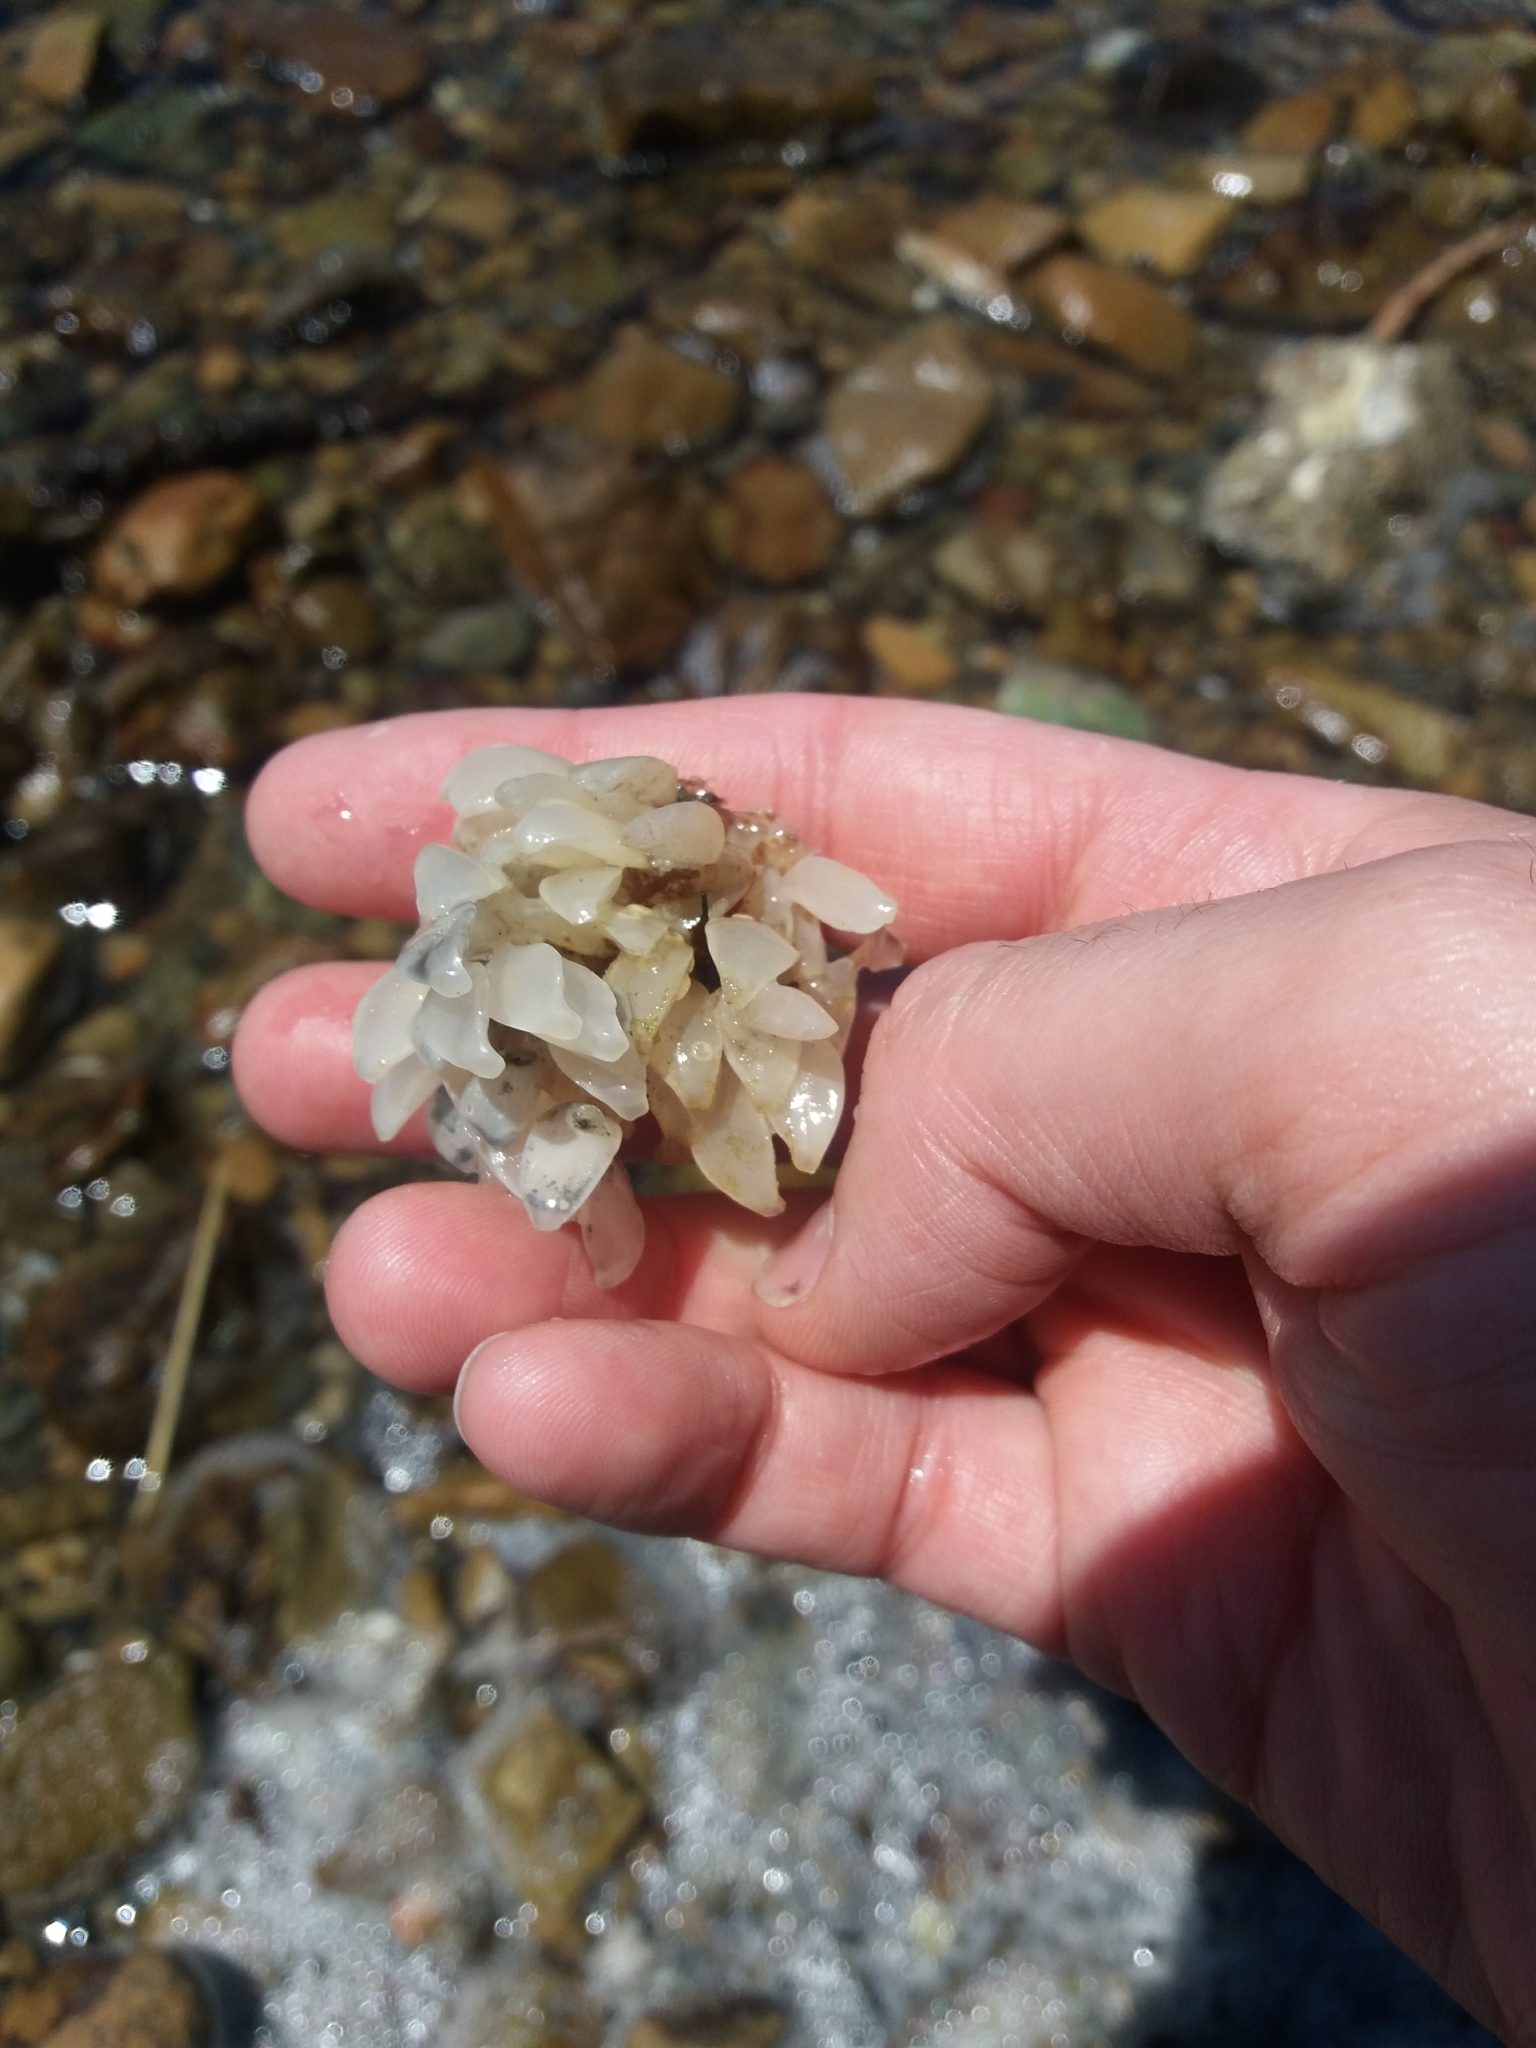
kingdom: Animalia
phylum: Mollusca
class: Gastropoda
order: Neogastropoda
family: Cominellidae
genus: Cominella
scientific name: Cominella maculosa
